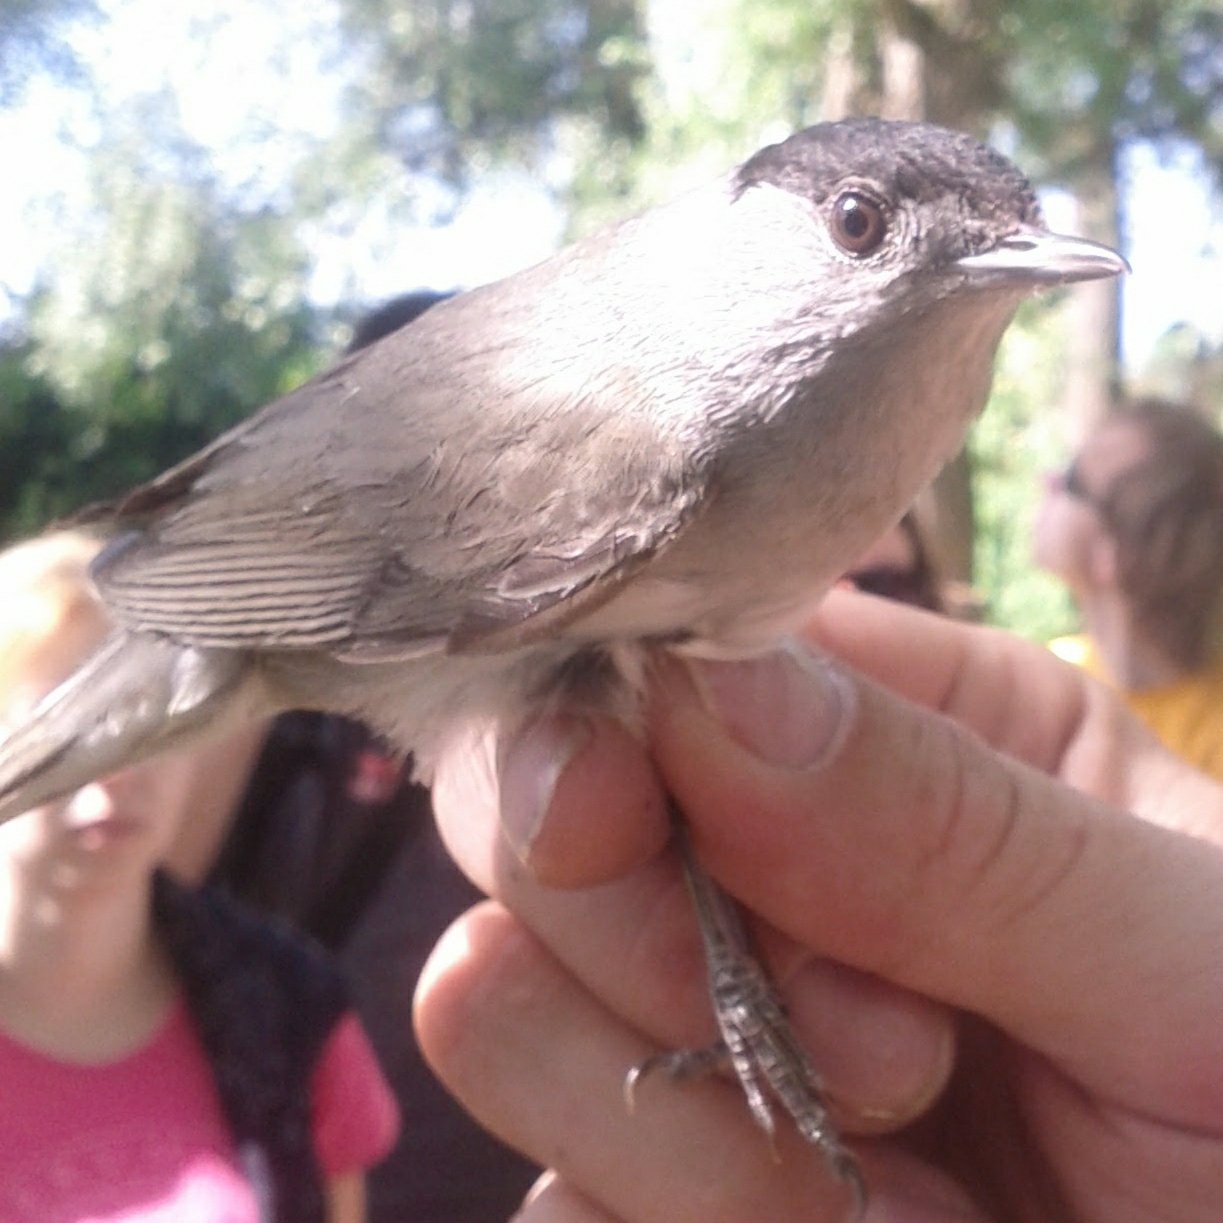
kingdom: Animalia
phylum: Chordata
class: Aves
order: Passeriformes
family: Sylviidae
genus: Sylvia
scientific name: Sylvia atricapilla
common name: Eurasian blackcap
